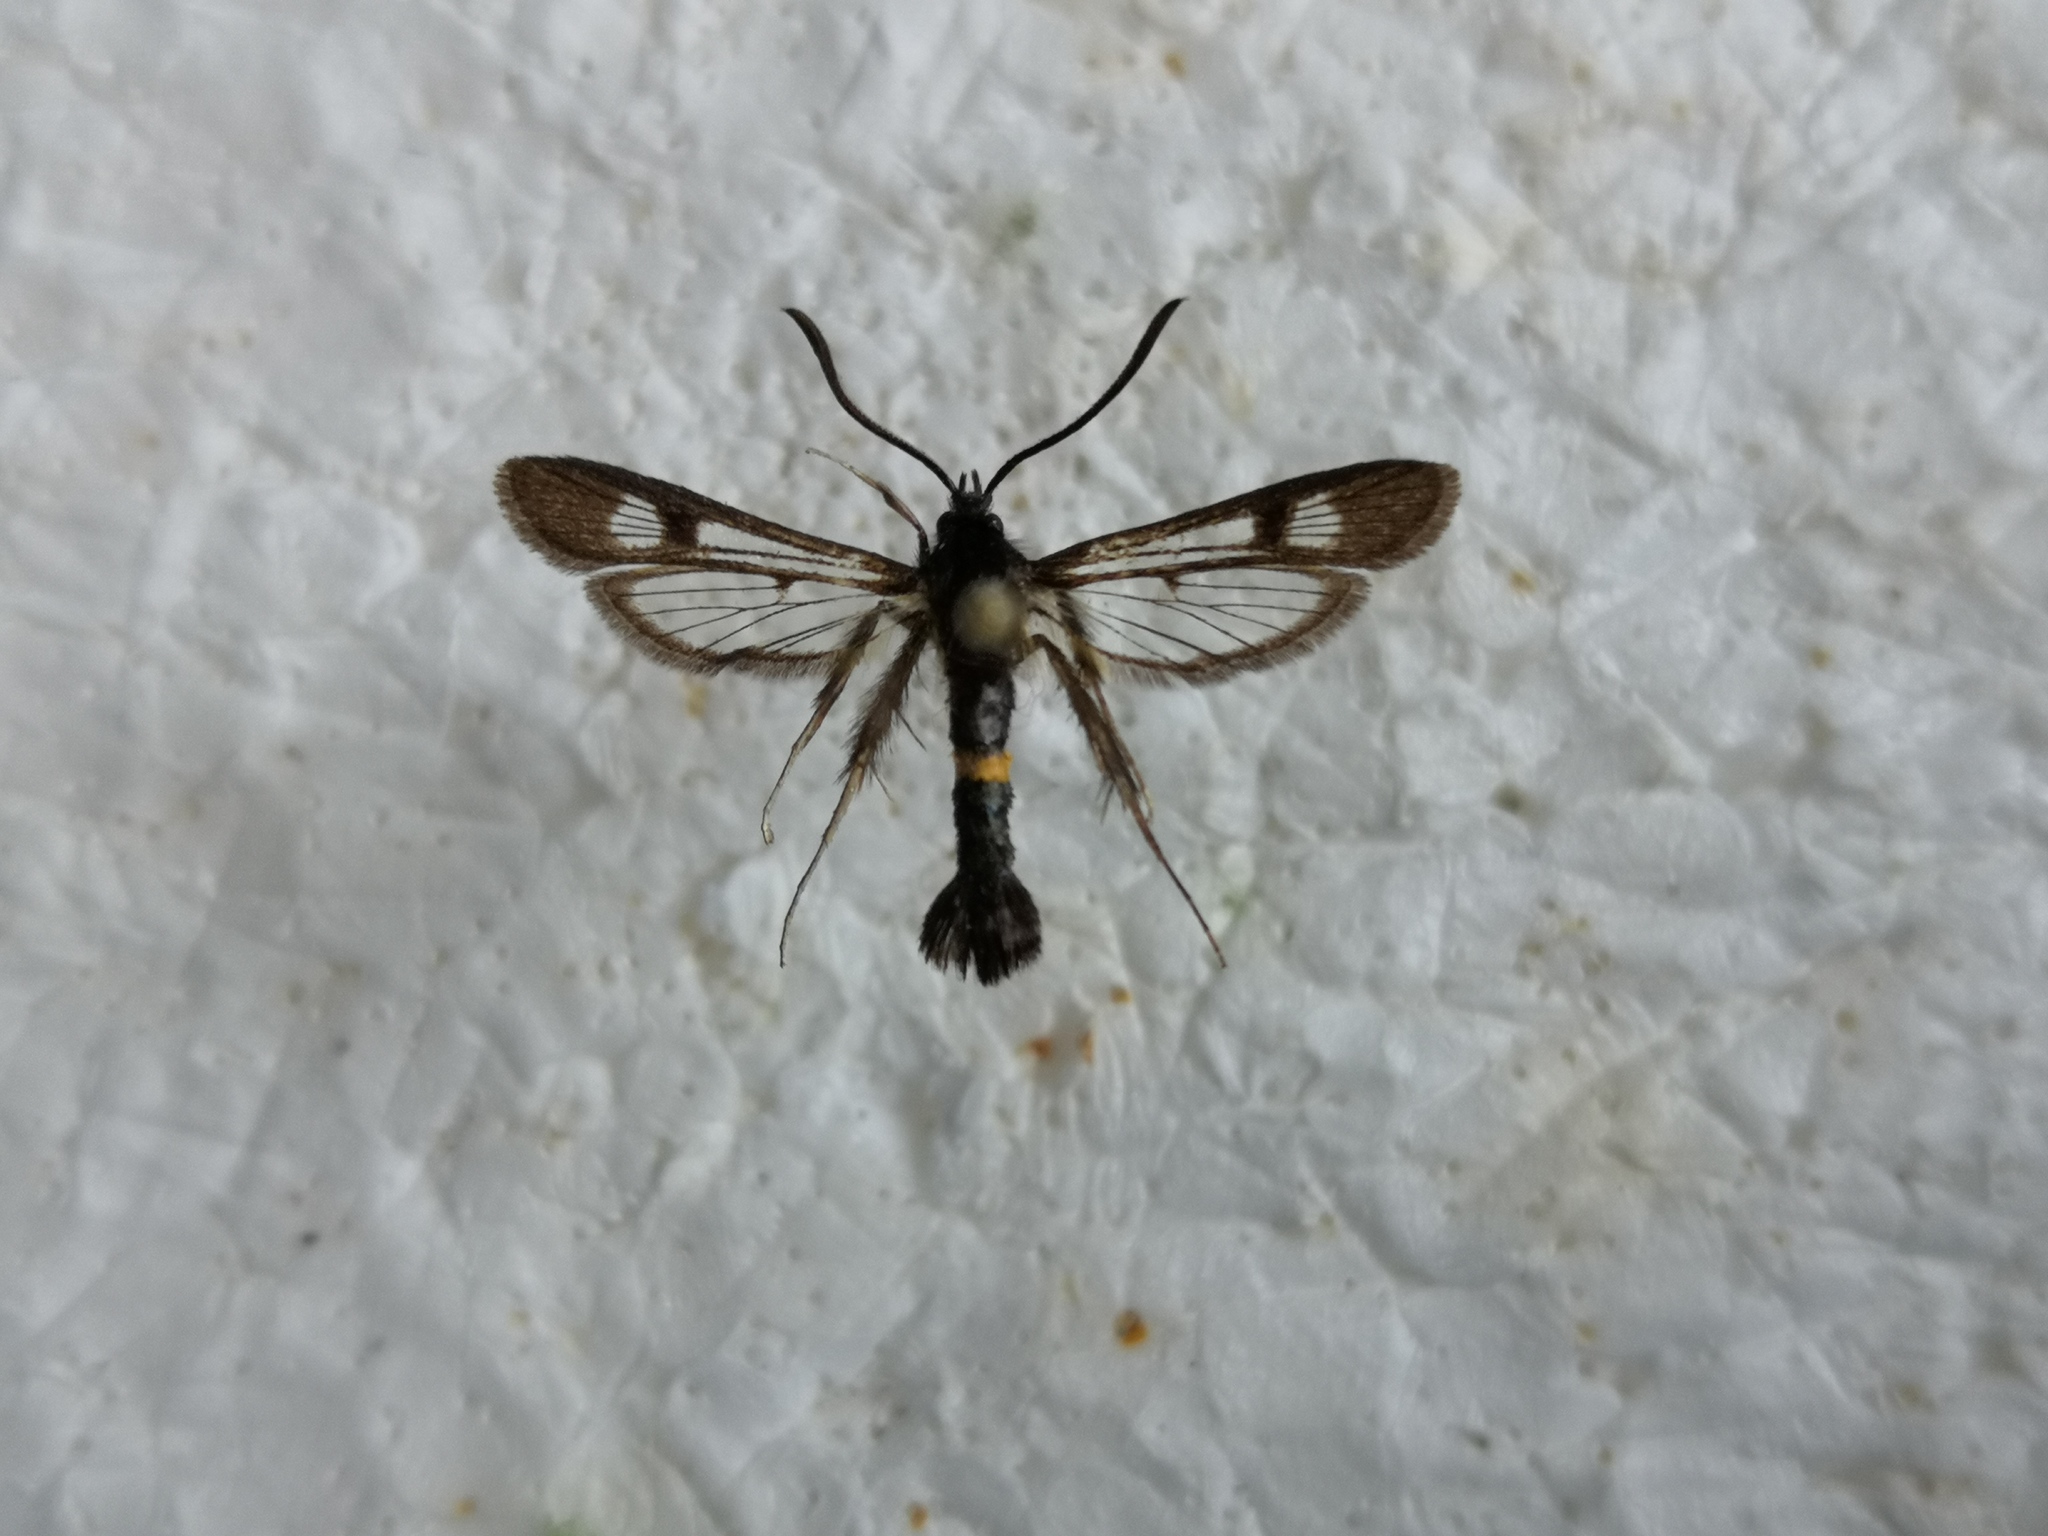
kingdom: Animalia
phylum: Arthropoda
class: Insecta
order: Lepidoptera
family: Sesiidae
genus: Synanthedon
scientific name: Synanthedon soffneri
